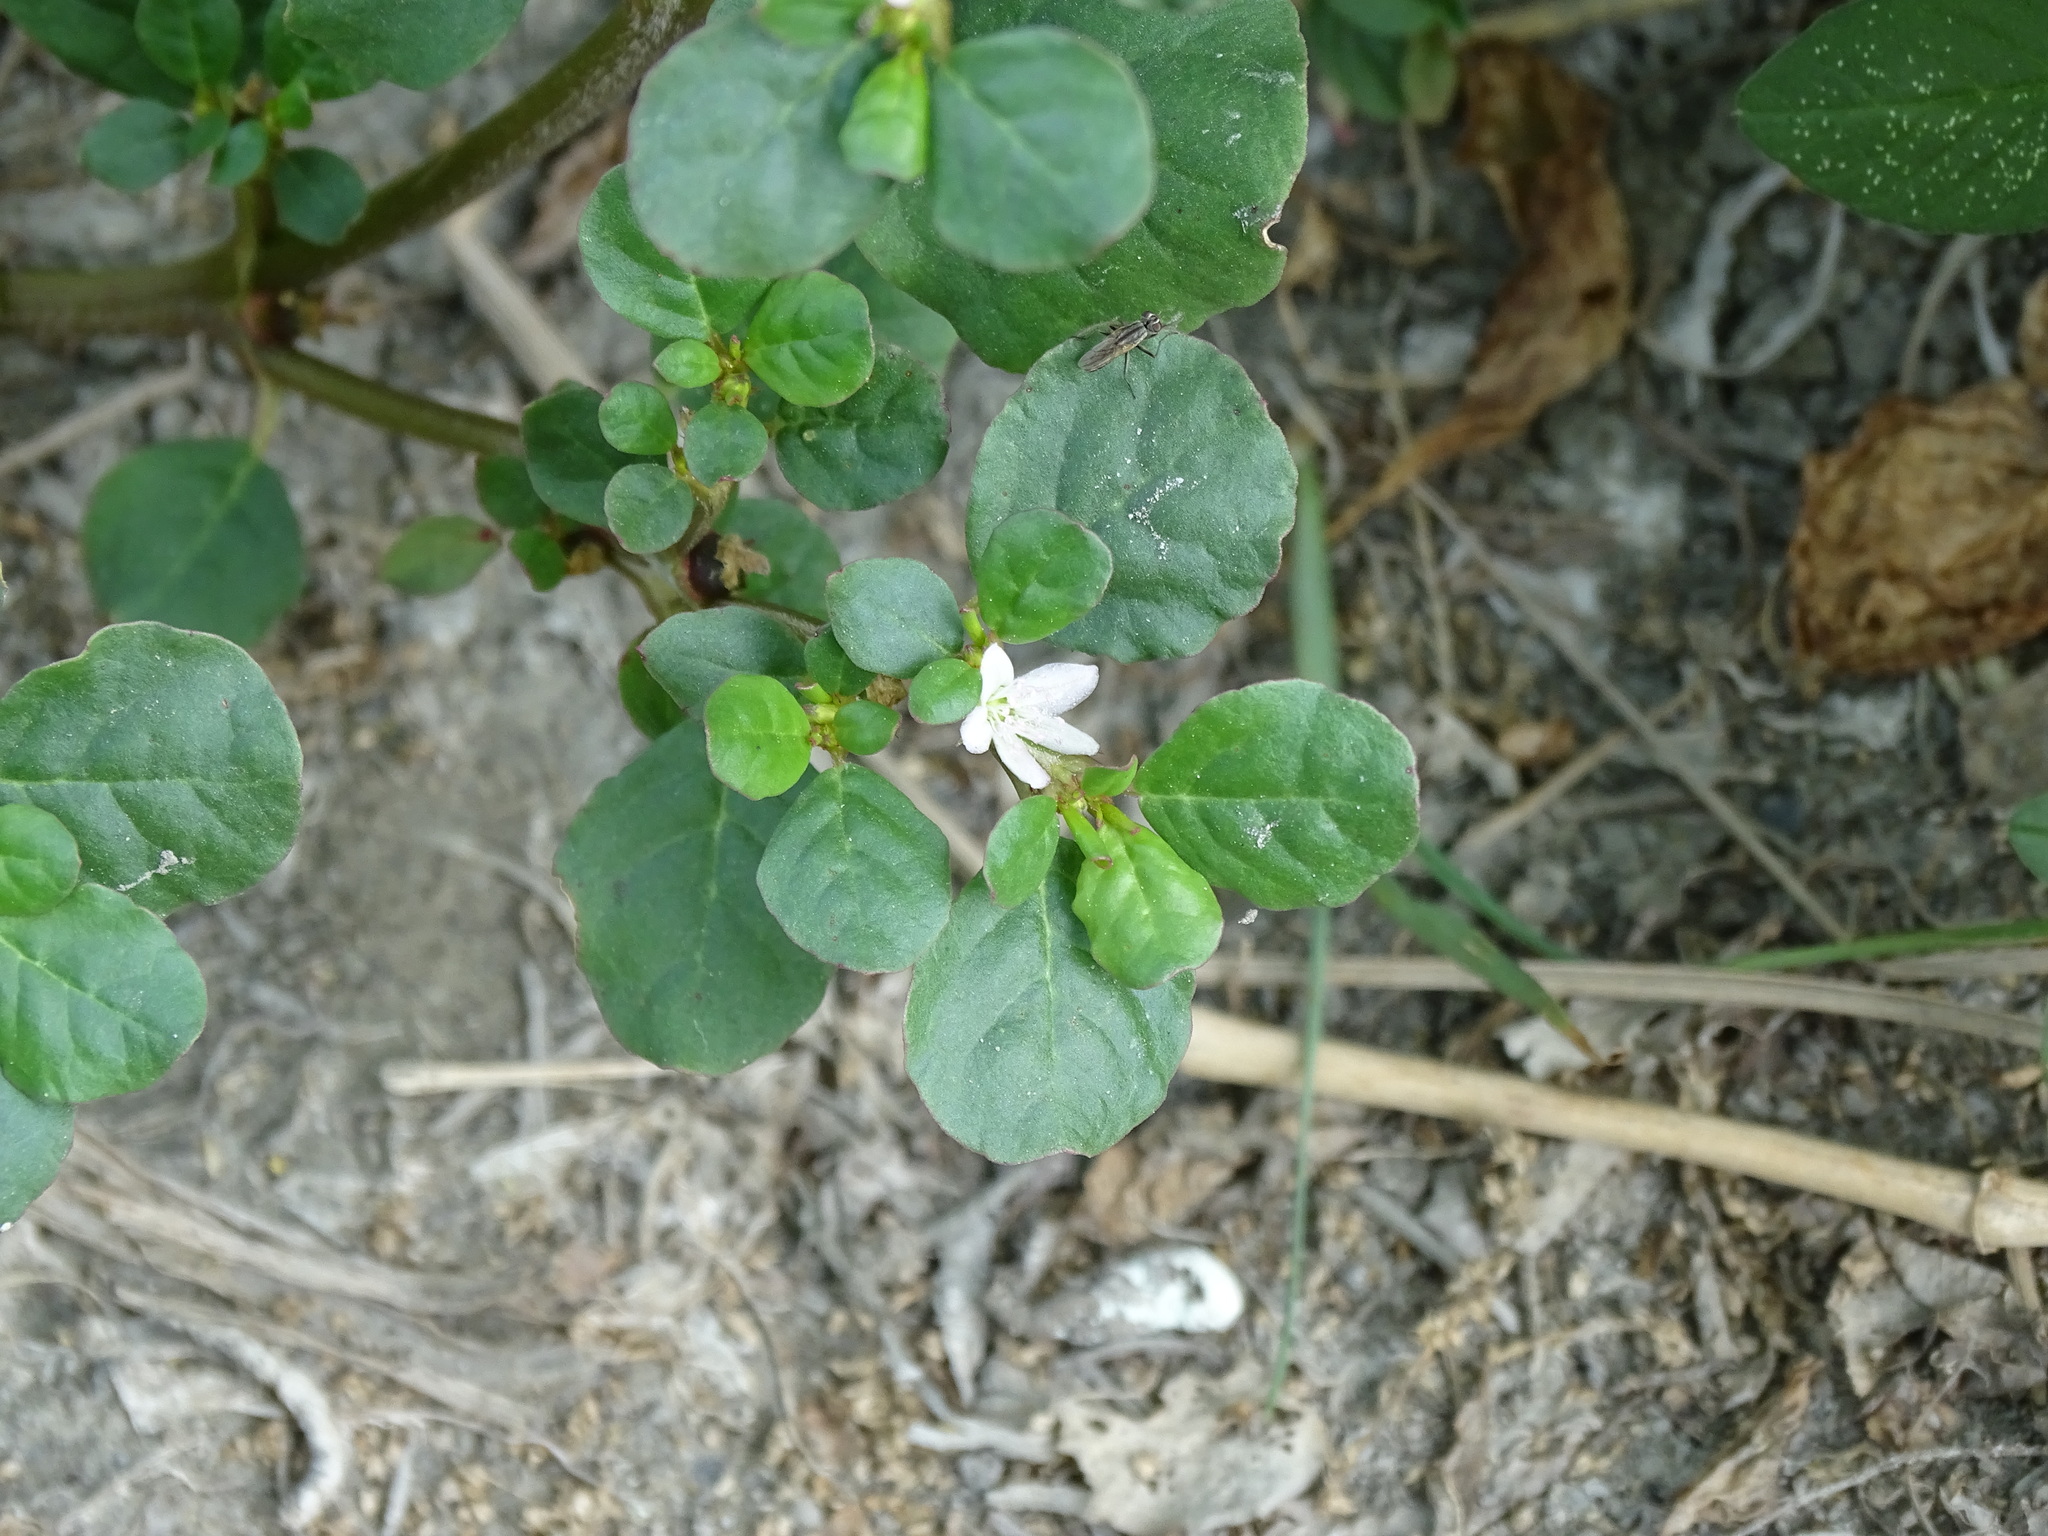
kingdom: Plantae
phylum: Tracheophyta
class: Magnoliopsida
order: Caryophyllales
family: Aizoaceae
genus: Trianthema
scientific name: Trianthema portulacastrum
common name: Desert horsepurslane
